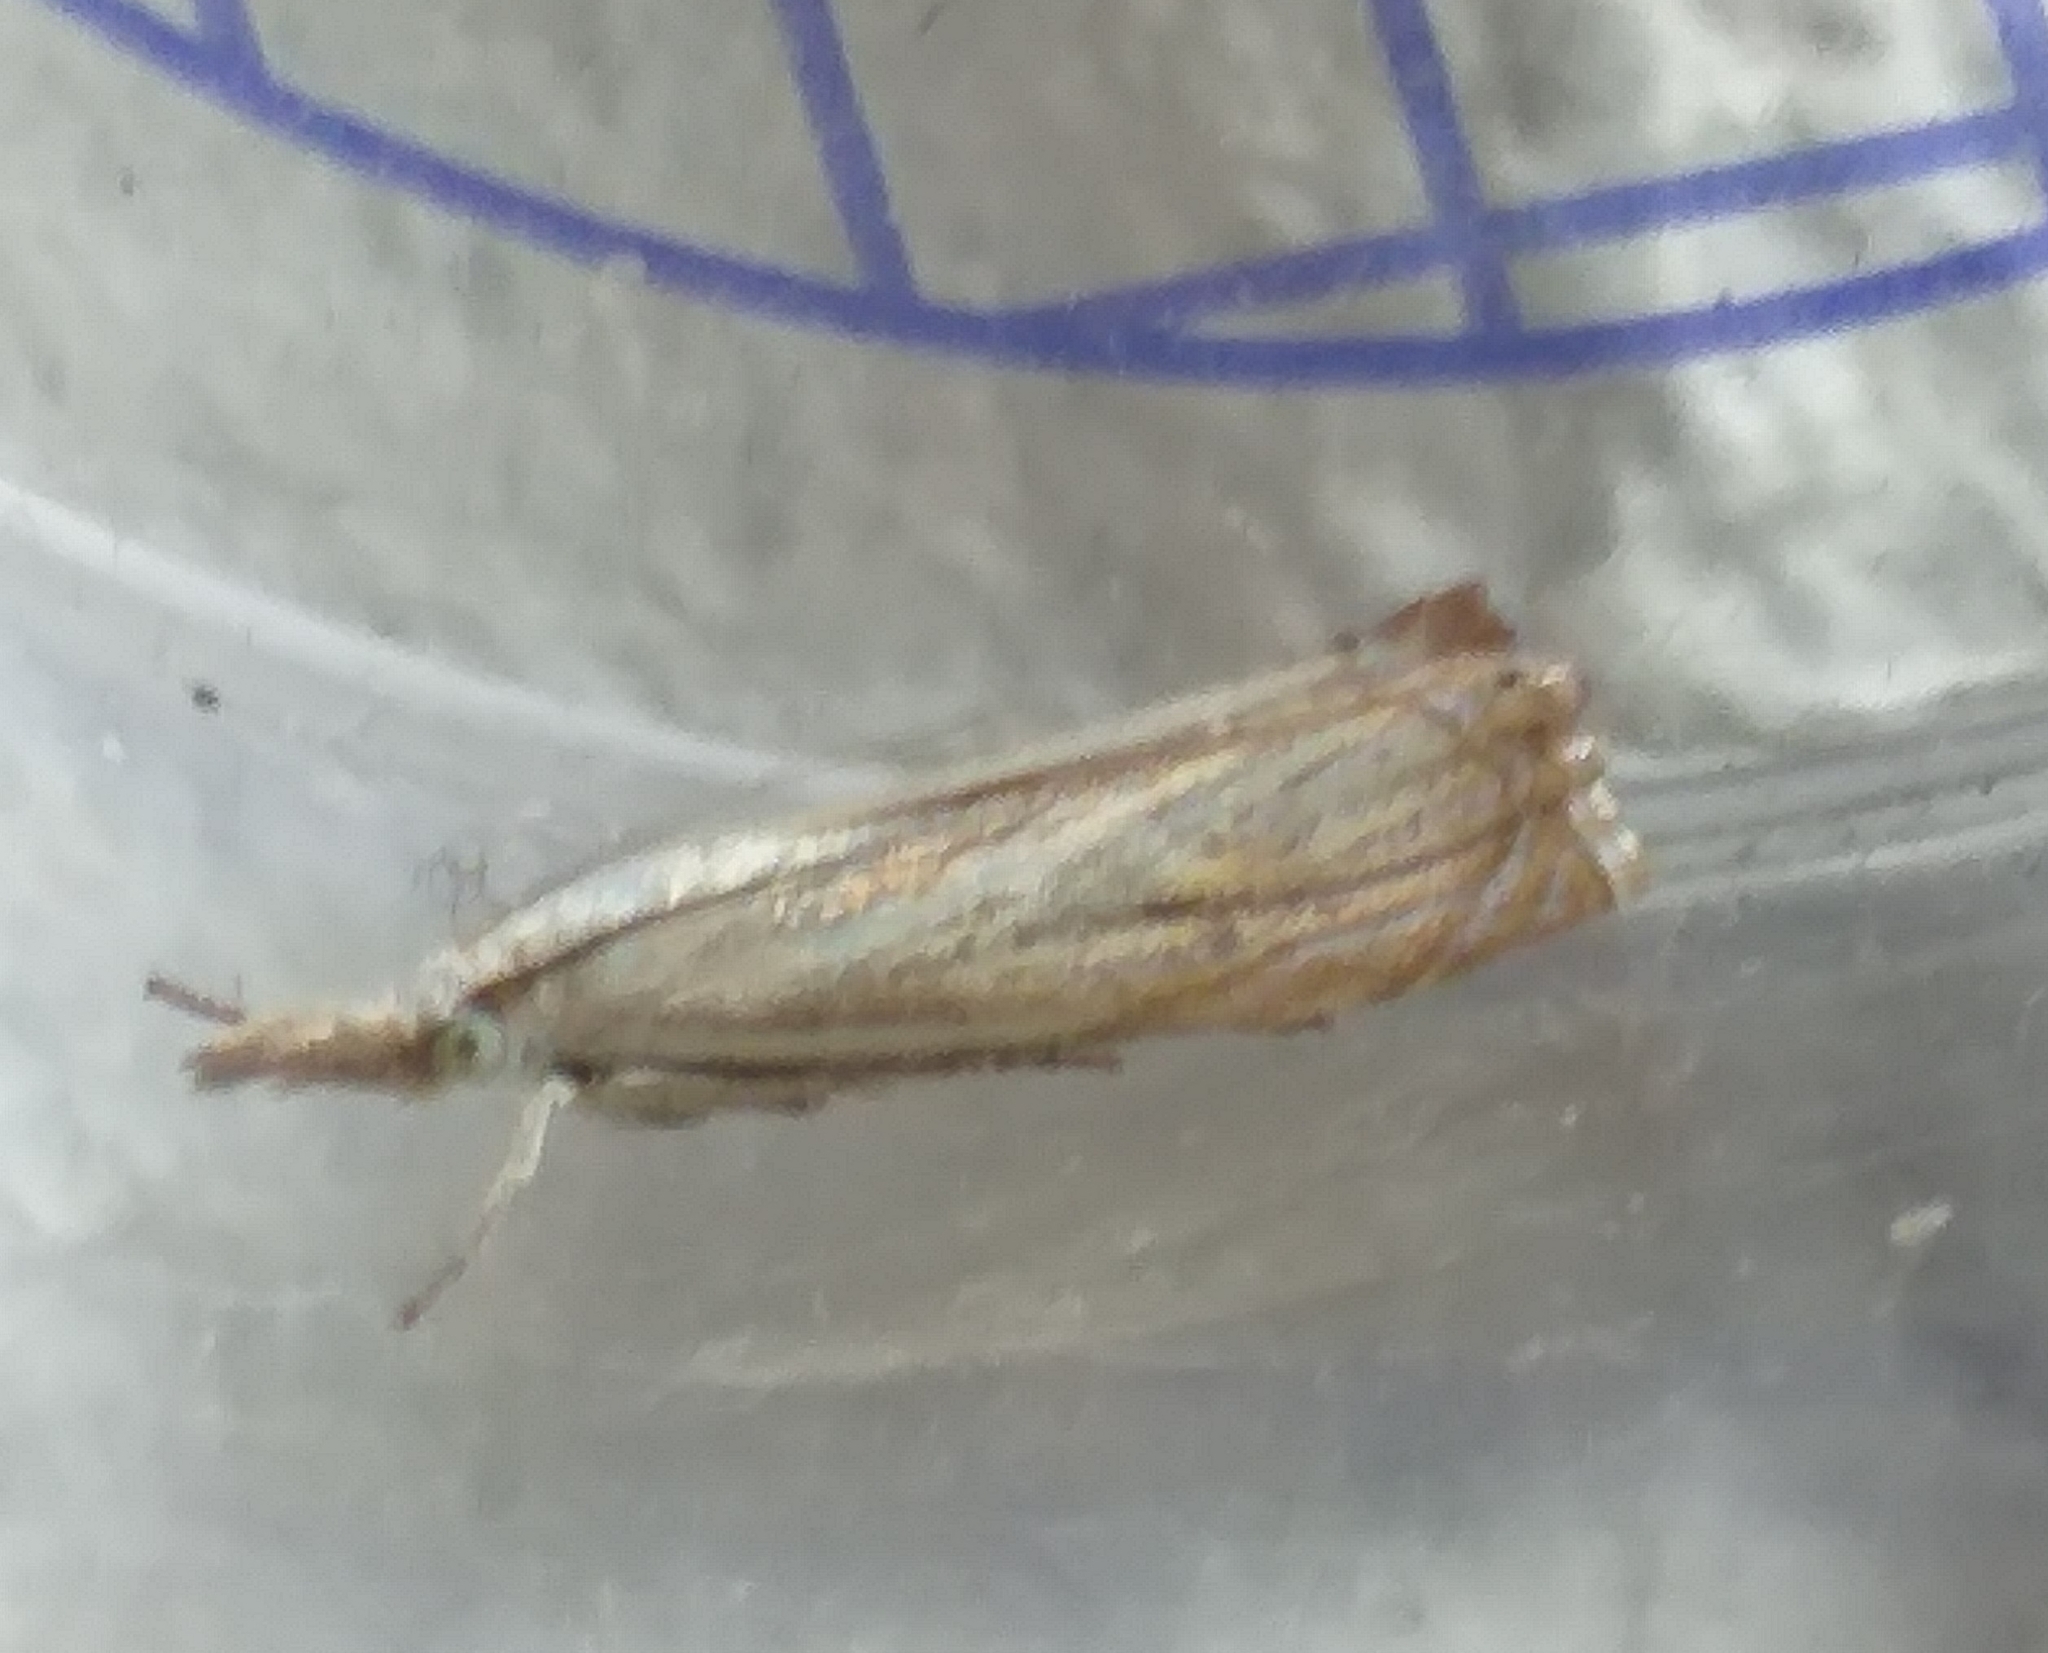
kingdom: Animalia
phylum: Arthropoda
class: Insecta
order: Lepidoptera
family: Crambidae
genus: Chrysoteuchia
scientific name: Chrysoteuchia culmella
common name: Garden grass-veneer
